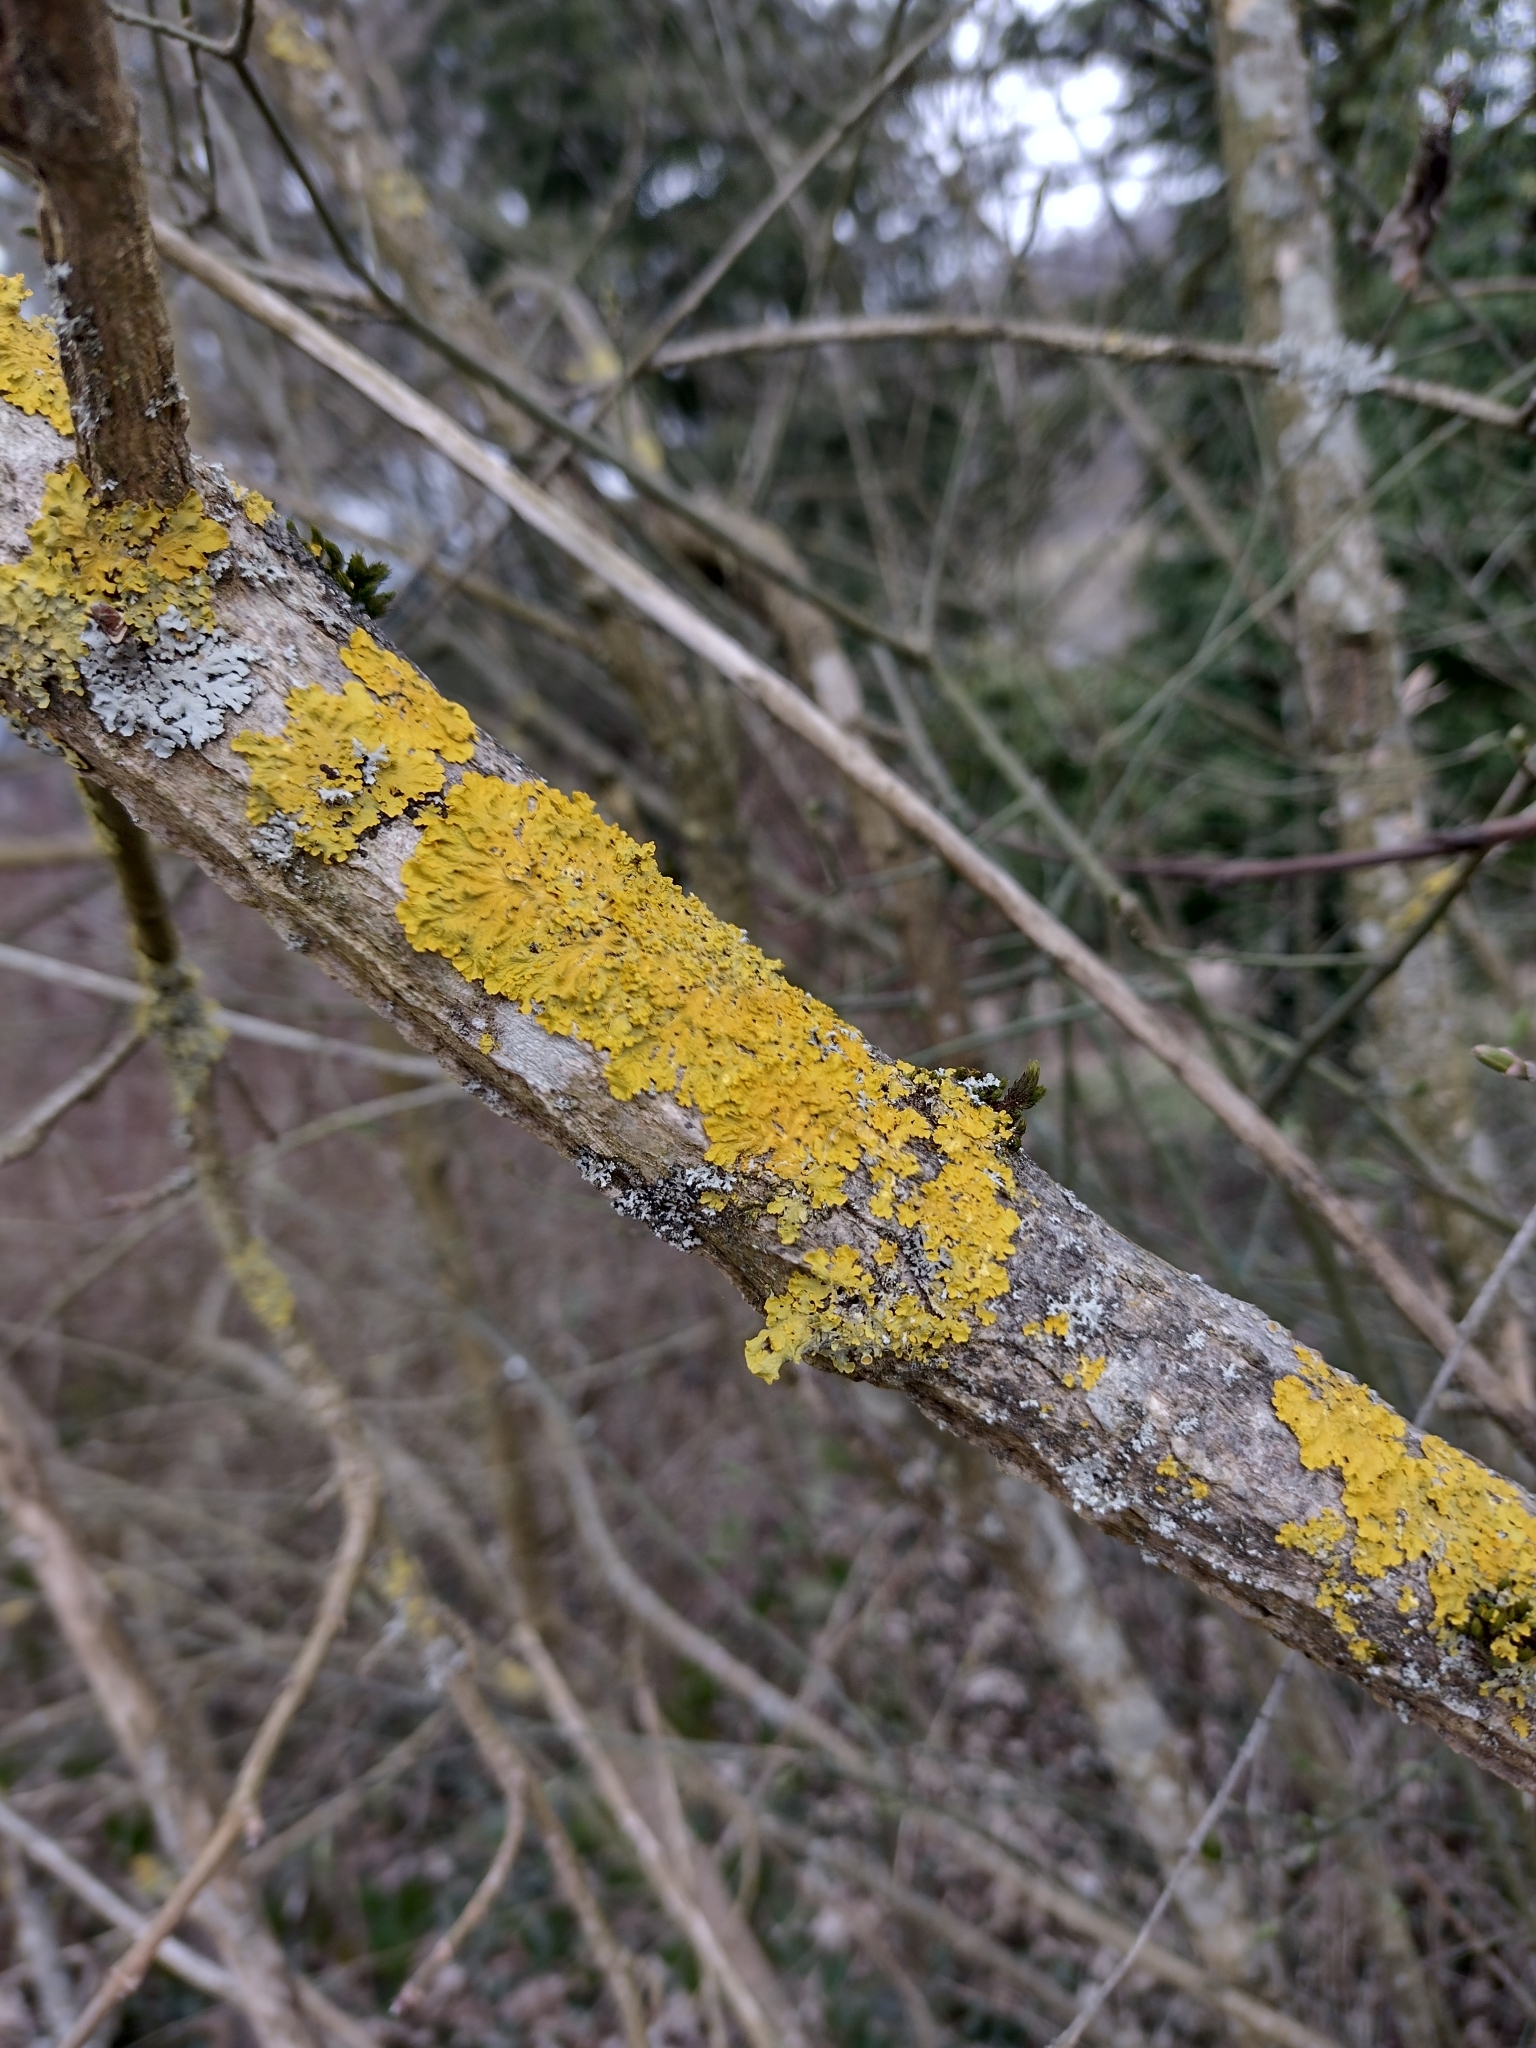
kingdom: Fungi
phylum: Ascomycota
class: Lecanoromycetes
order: Teloschistales
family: Teloschistaceae
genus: Xanthoria
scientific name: Xanthoria parietina
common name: Common orange lichen
